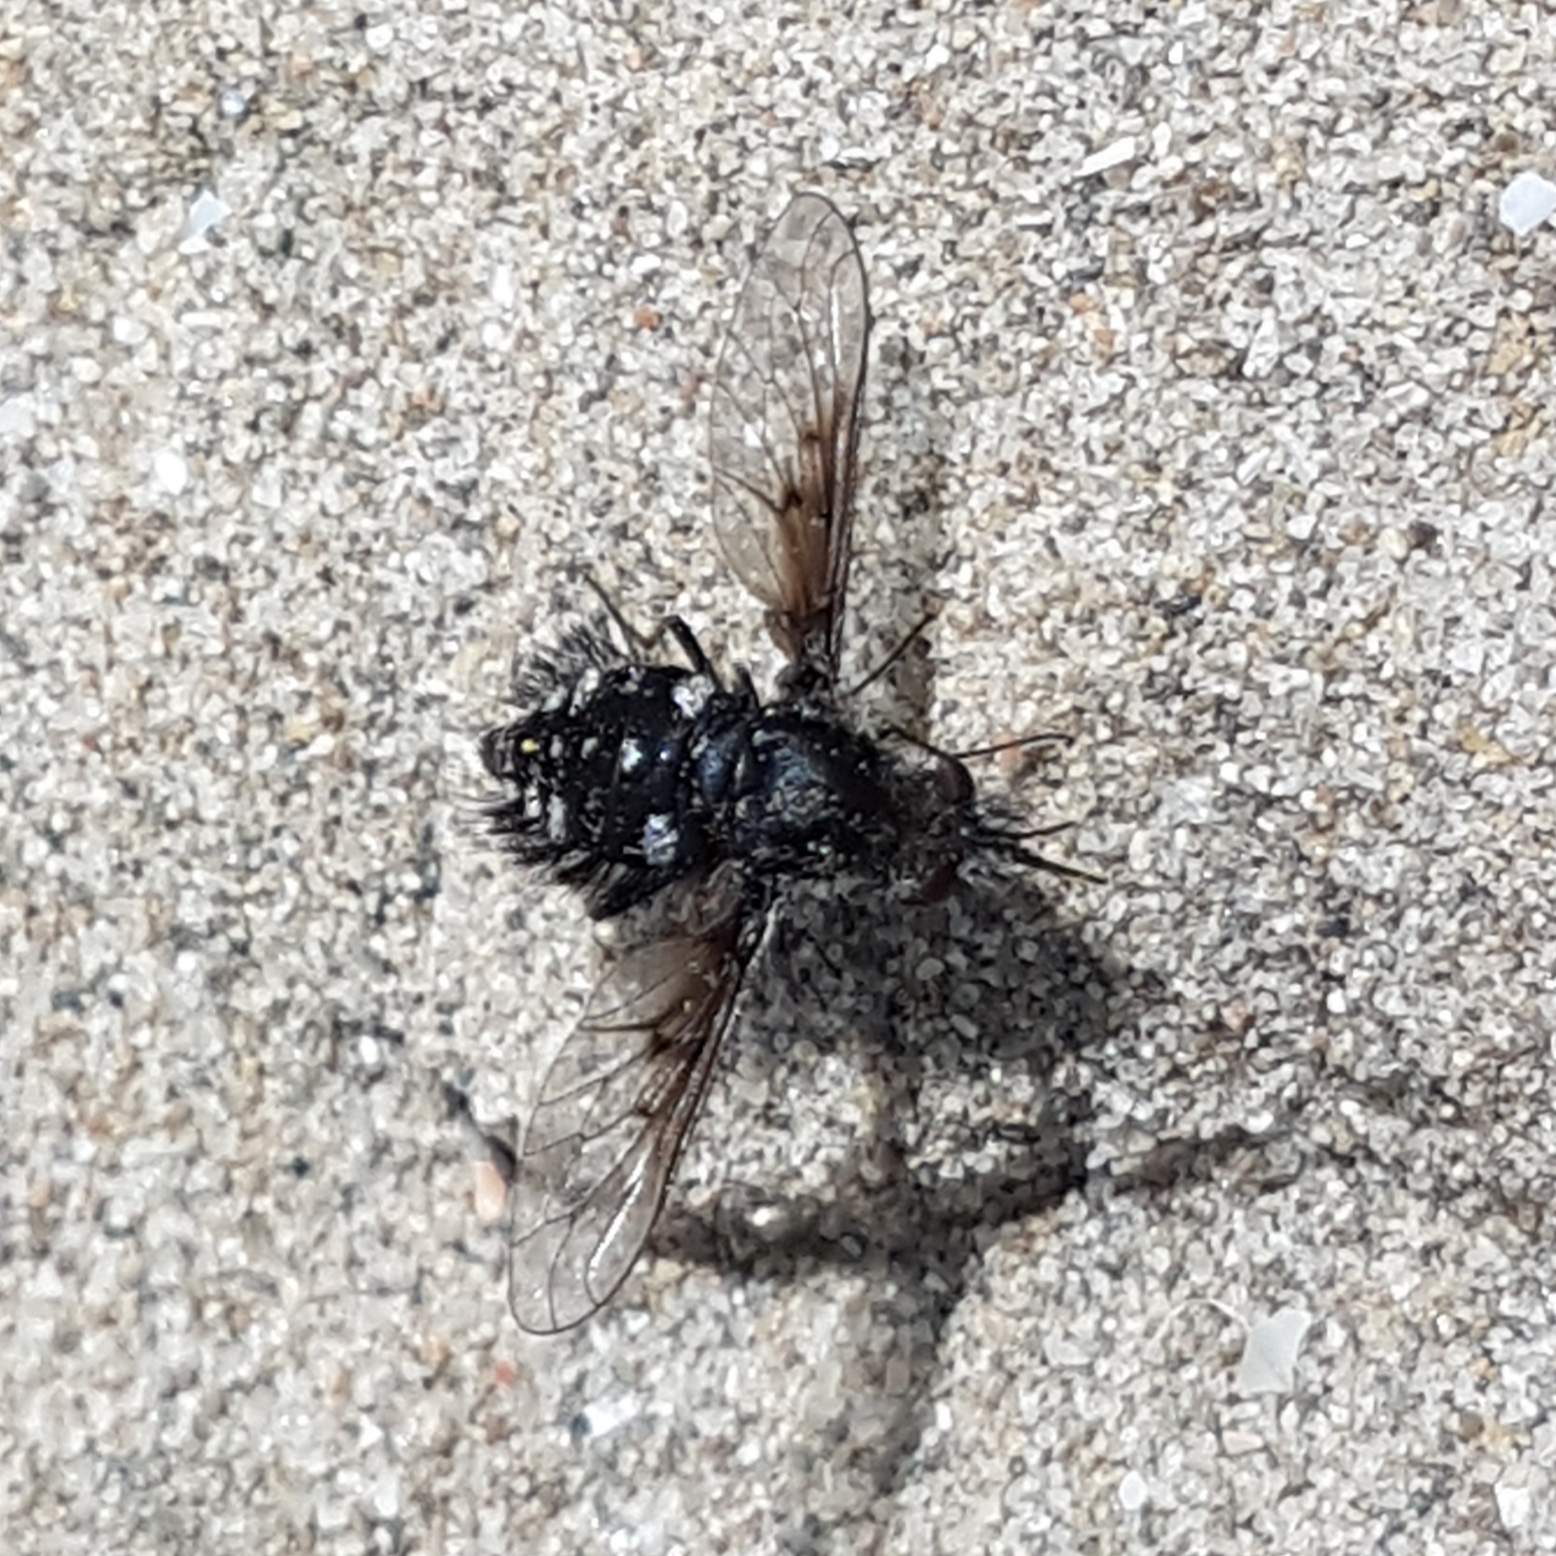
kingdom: Animalia
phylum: Arthropoda
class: Insecta
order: Diptera
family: Bombyliidae
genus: Bombylella
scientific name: Bombylella atra
